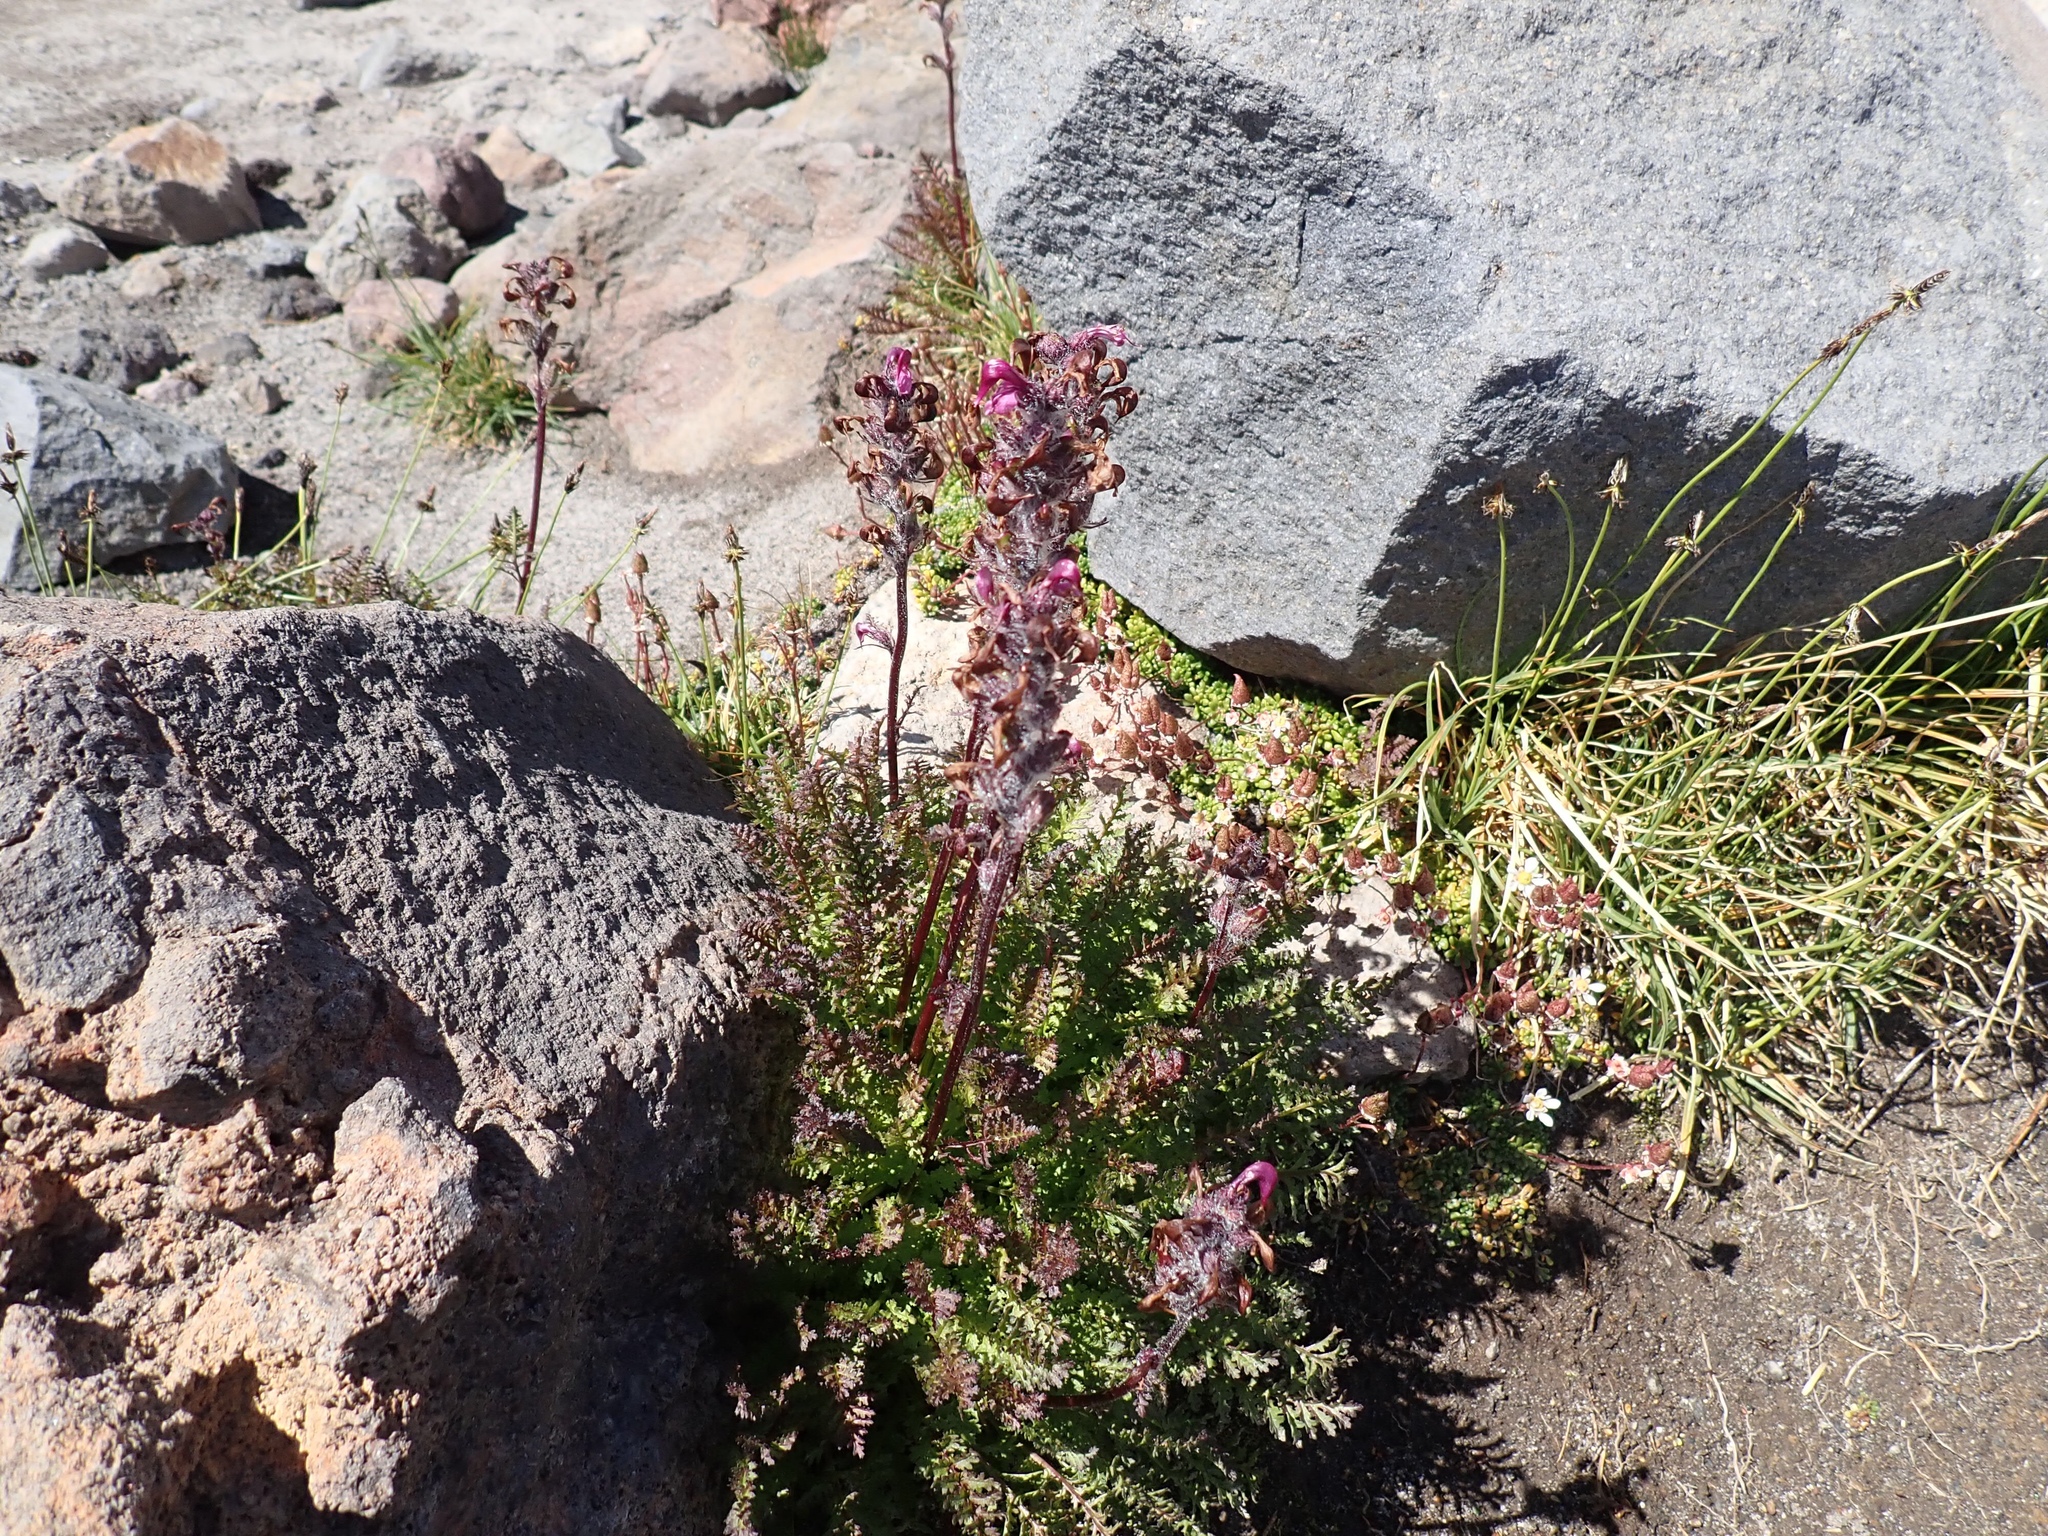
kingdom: Plantae
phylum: Tracheophyta
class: Magnoliopsida
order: Lamiales
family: Orobanchaceae
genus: Pedicularis
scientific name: Pedicularis ornithorhynchos
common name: Bird's-beak lousewort
